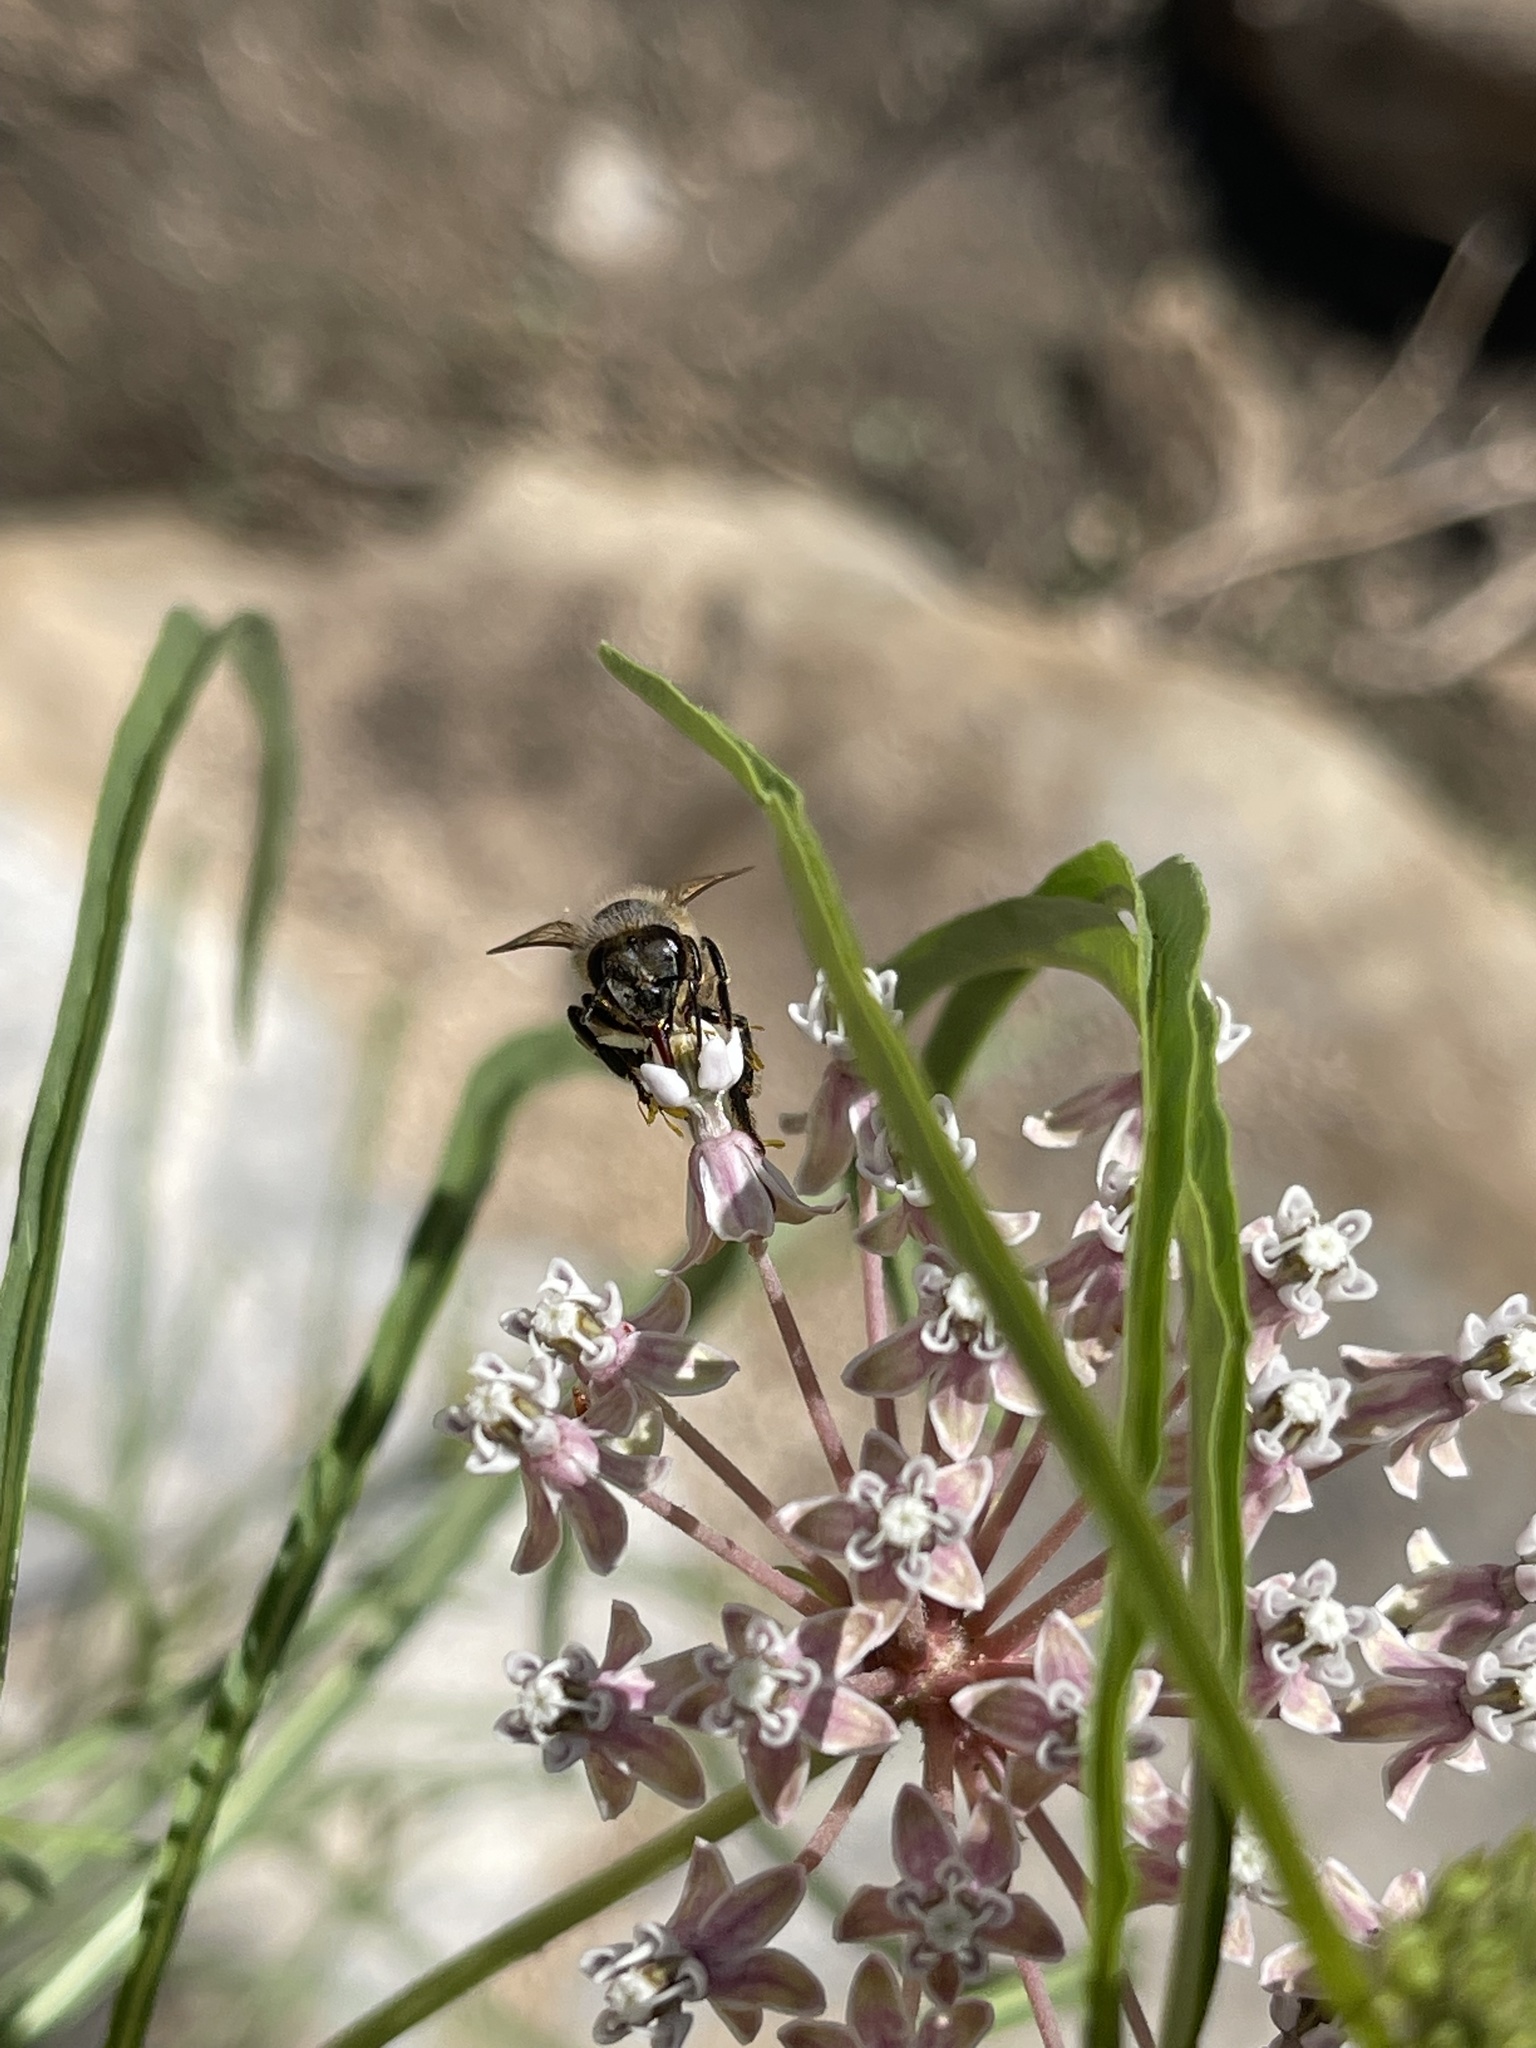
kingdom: Animalia
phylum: Arthropoda
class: Insecta
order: Hymenoptera
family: Apidae
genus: Apis
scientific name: Apis mellifera
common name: Honey bee
